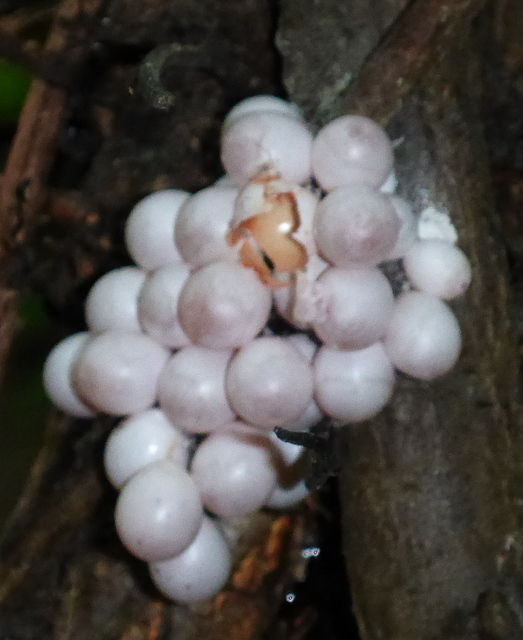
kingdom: Animalia
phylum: Mollusca
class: Gastropoda
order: Architaenioglossa
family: Ampullariidae
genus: Pomacea
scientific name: Pomacea paludosa
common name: Florida applesnail
